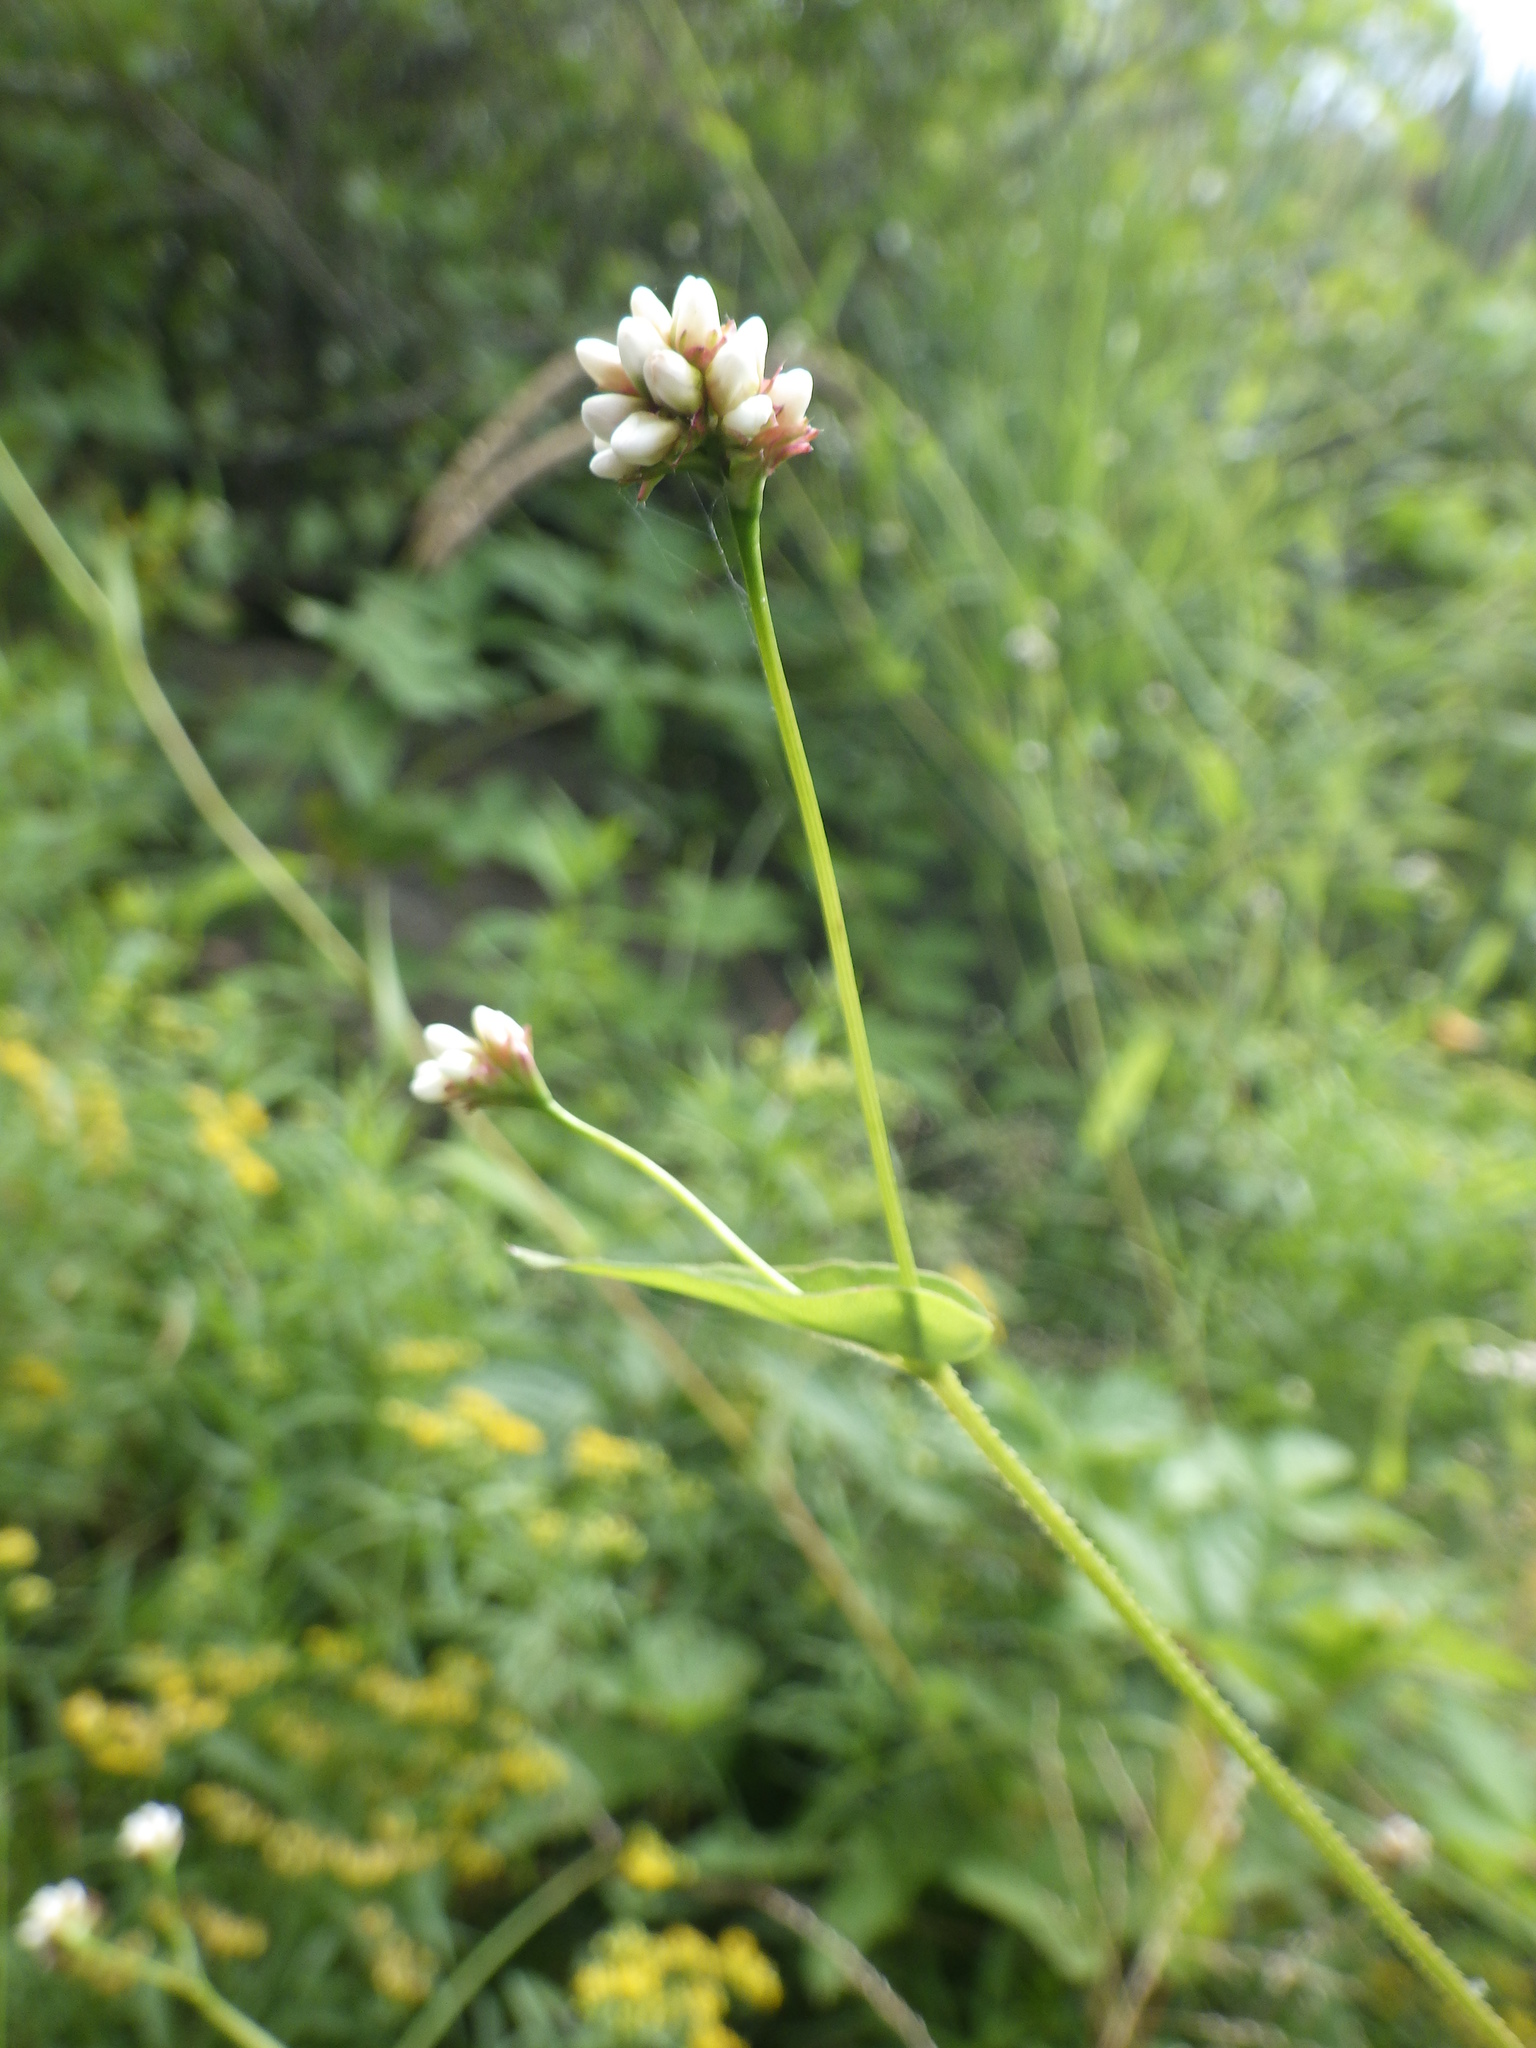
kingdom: Plantae
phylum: Tracheophyta
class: Magnoliopsida
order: Caryophyllales
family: Polygonaceae
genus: Persicaria
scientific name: Persicaria sagittata
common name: American tearthumb
